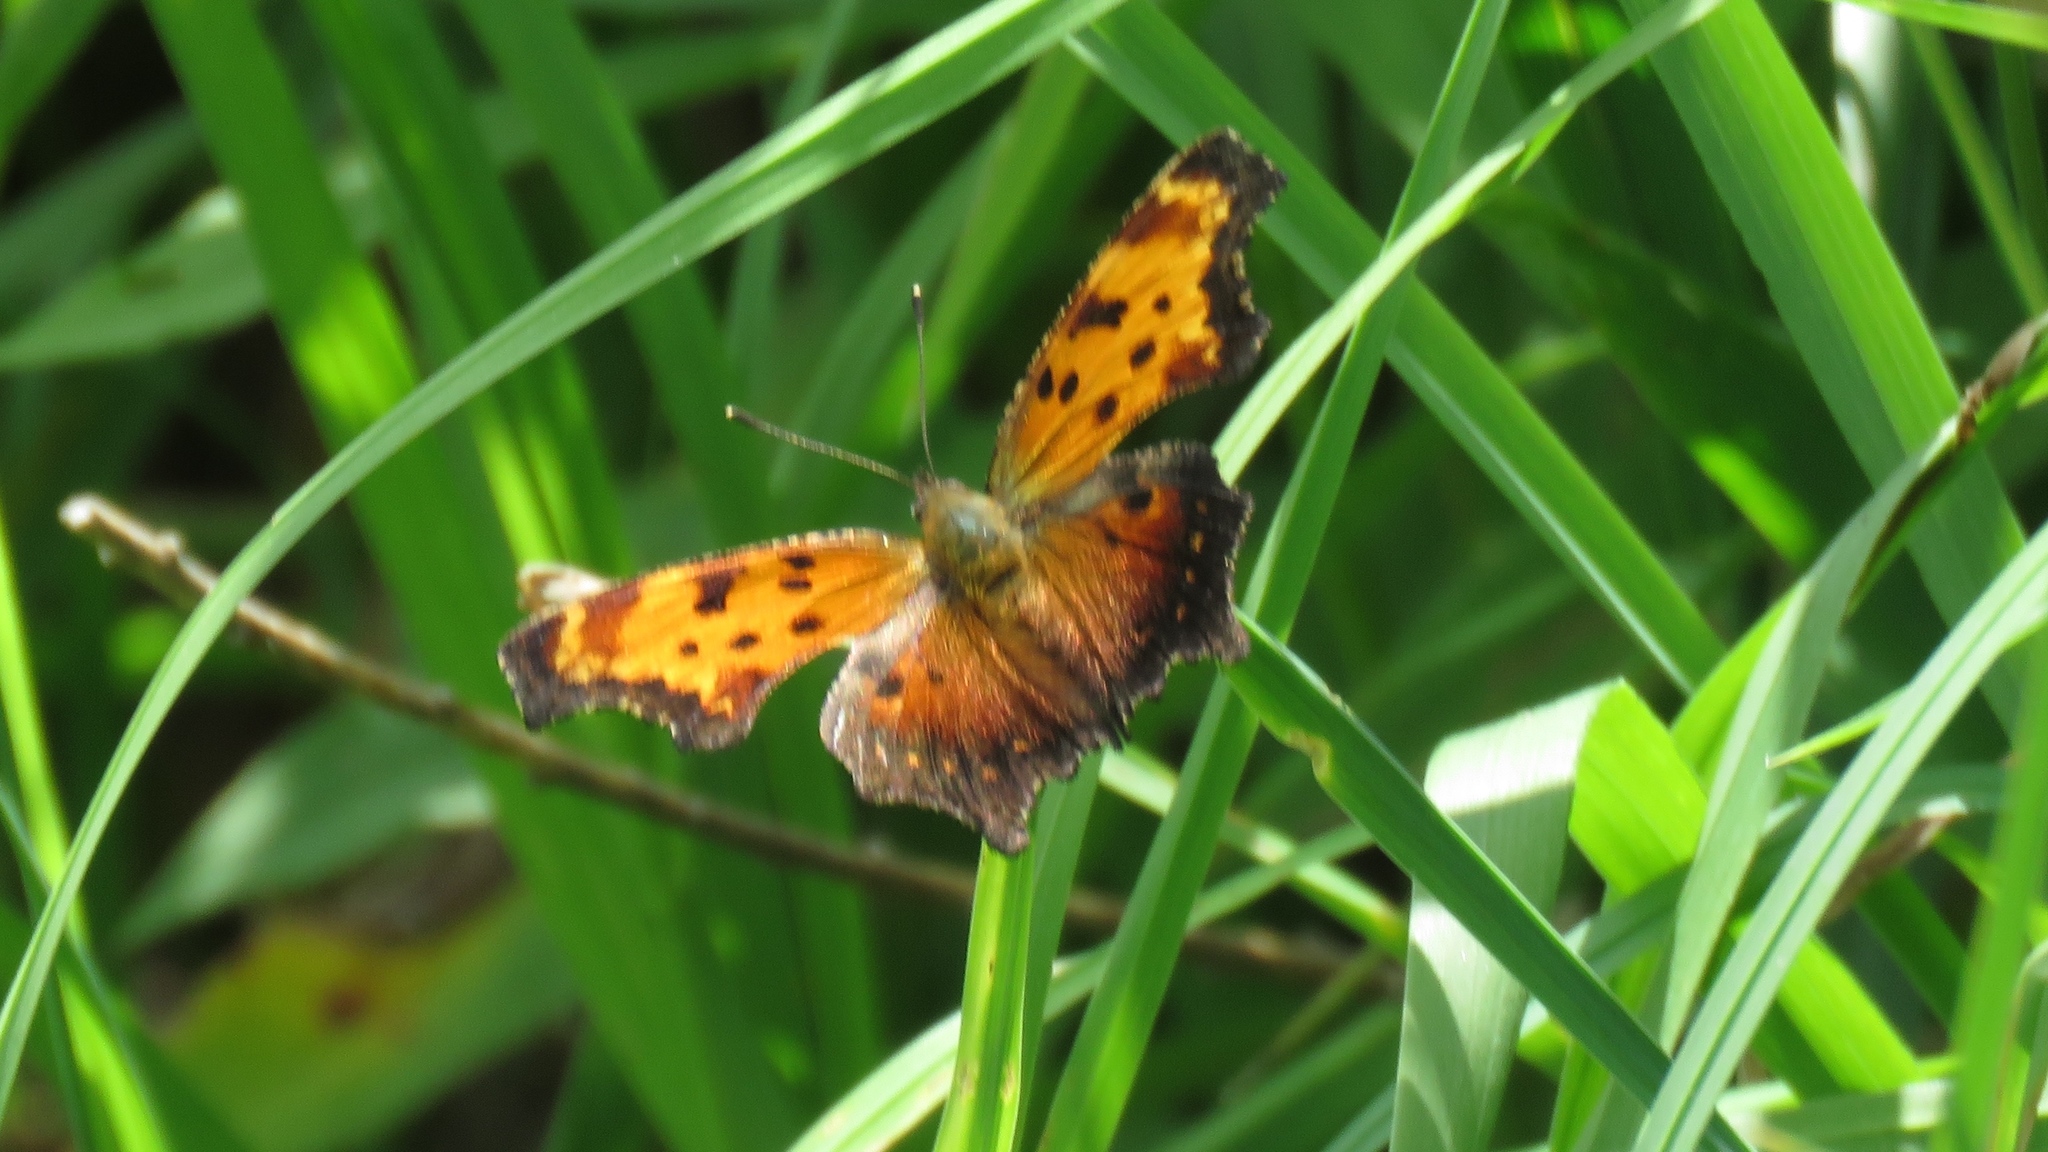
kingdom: Animalia
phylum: Arthropoda
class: Insecta
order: Lepidoptera
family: Nymphalidae
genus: Polygonia
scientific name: Polygonia progne
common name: Gray comma
